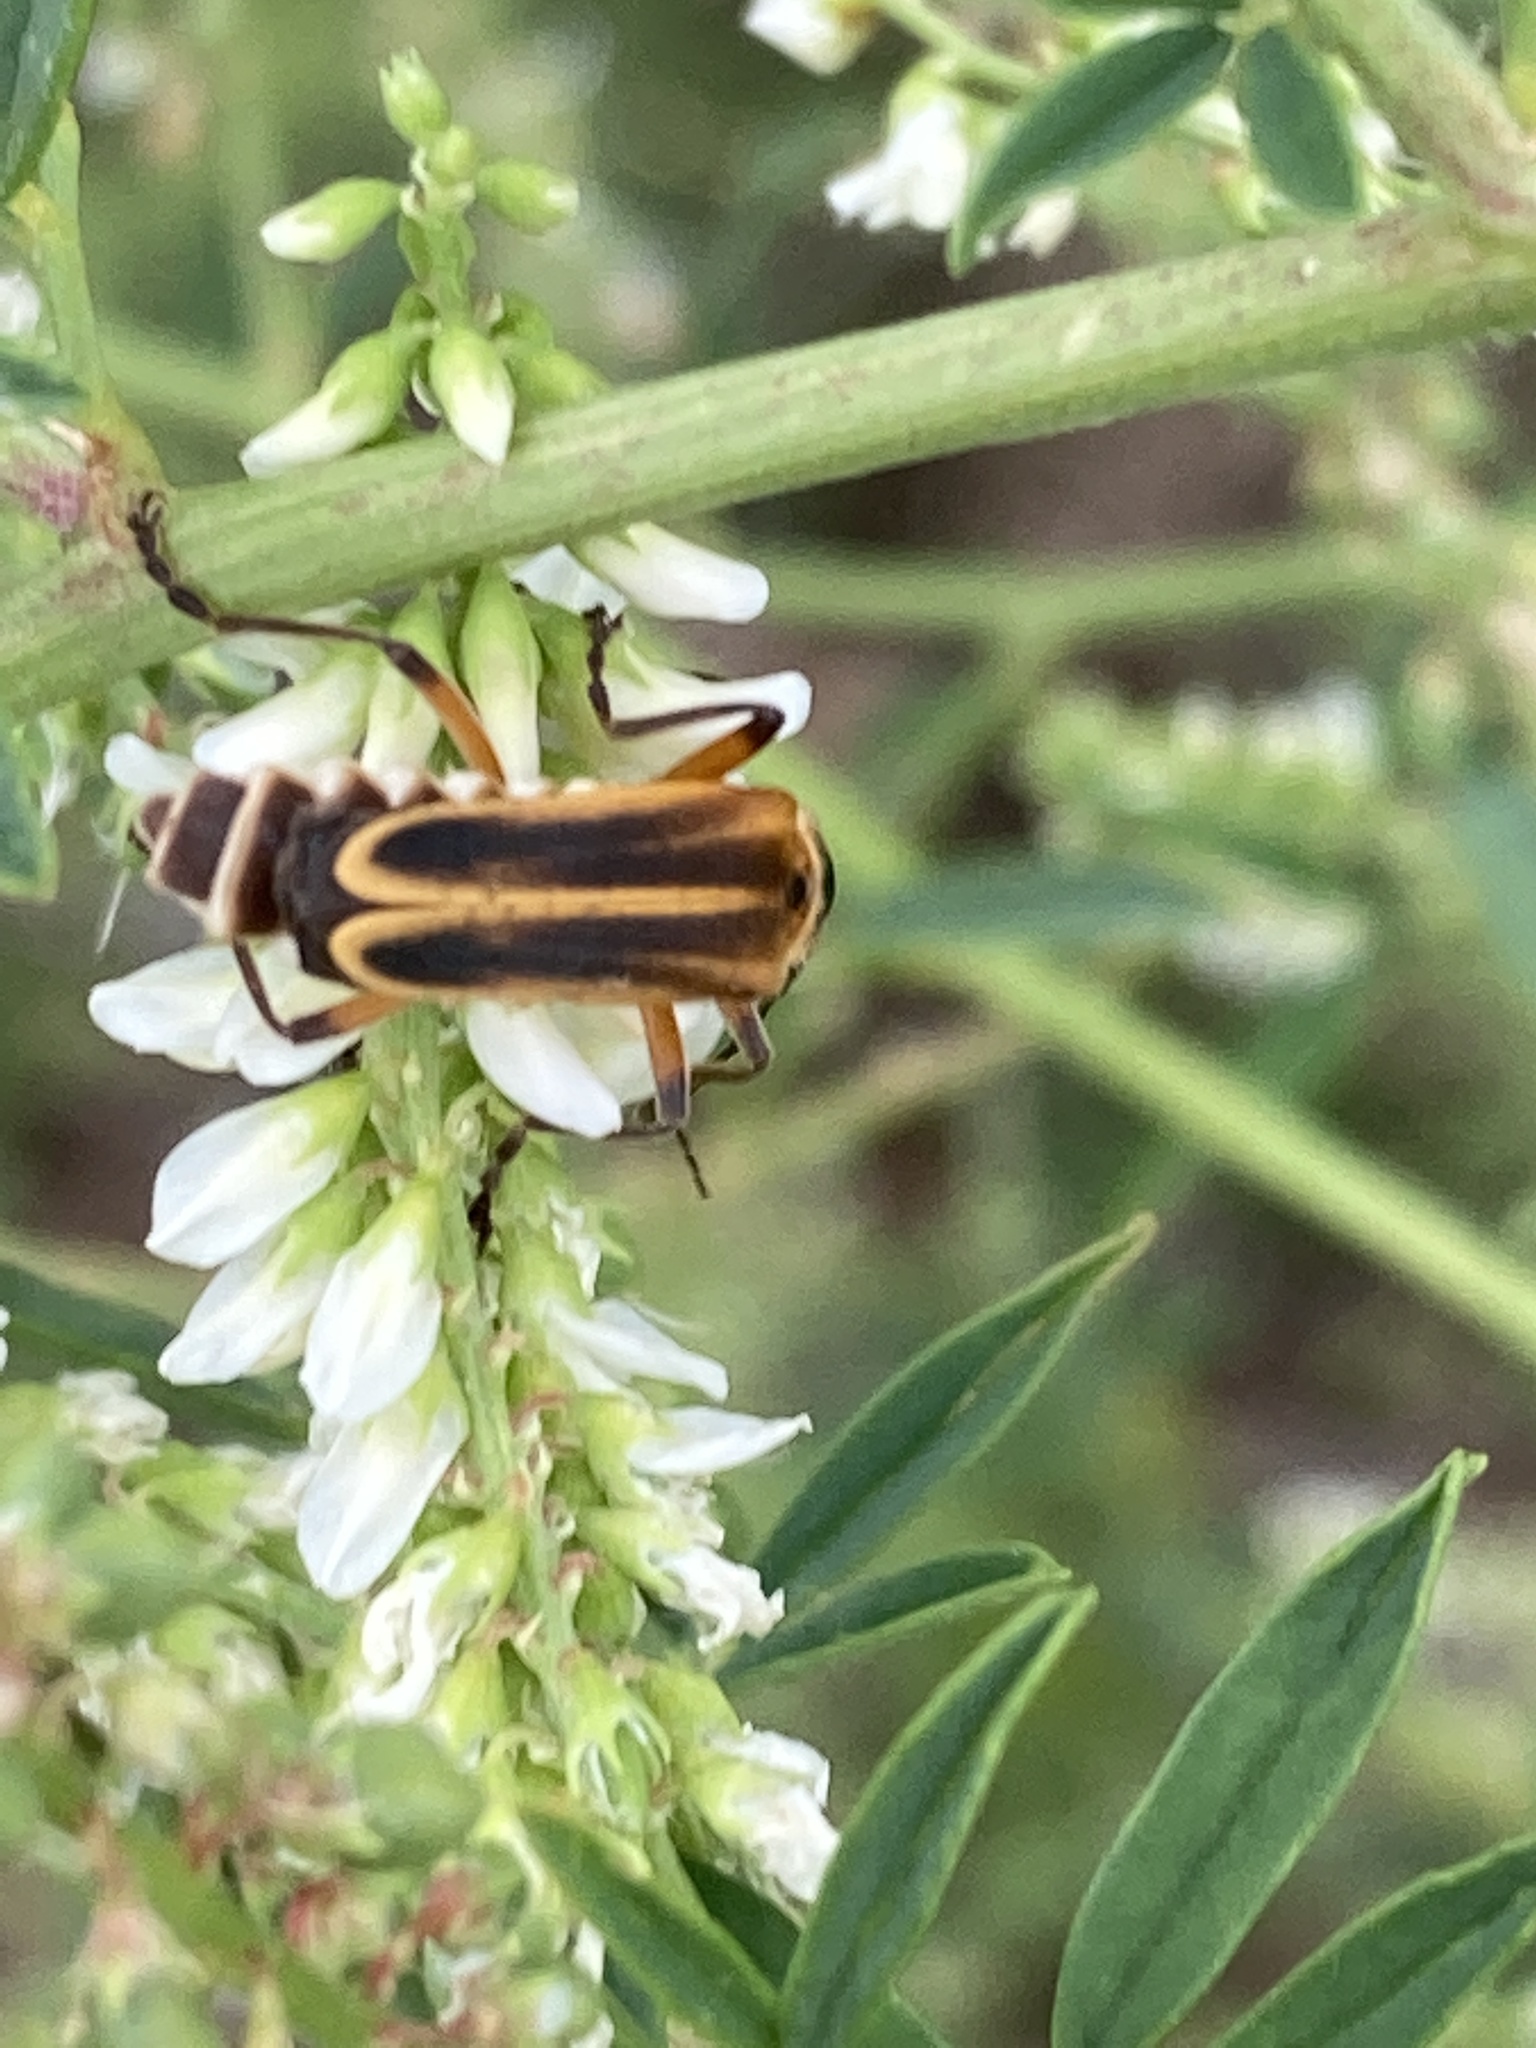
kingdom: Animalia
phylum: Arthropoda
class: Insecta
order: Coleoptera
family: Cantharidae
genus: Chauliognathus
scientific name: Chauliognathus marginatus
